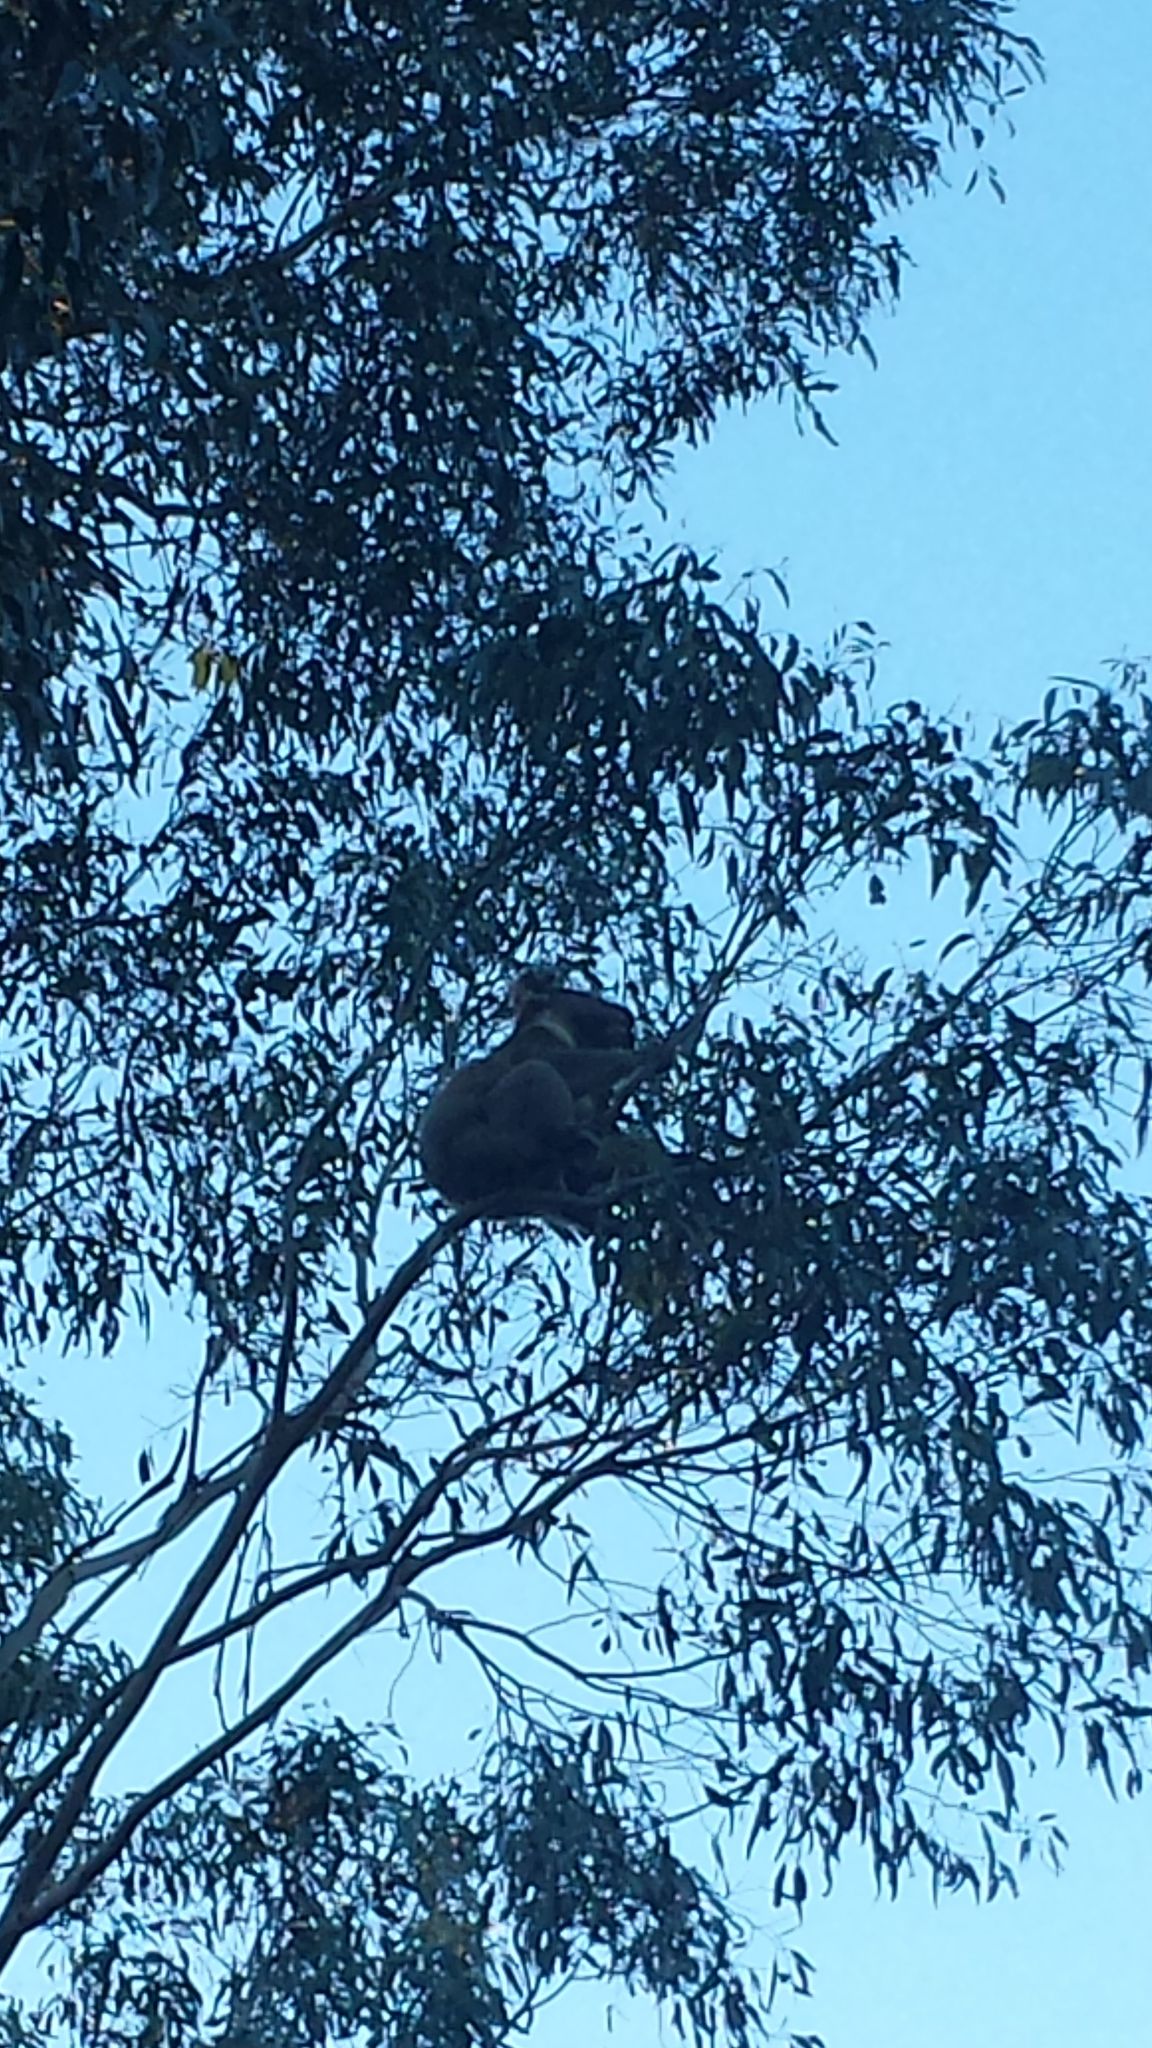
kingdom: Animalia
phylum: Chordata
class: Mammalia
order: Diprotodontia
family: Phascolarctidae
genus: Phascolarctos
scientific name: Phascolarctos cinereus
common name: Koala
